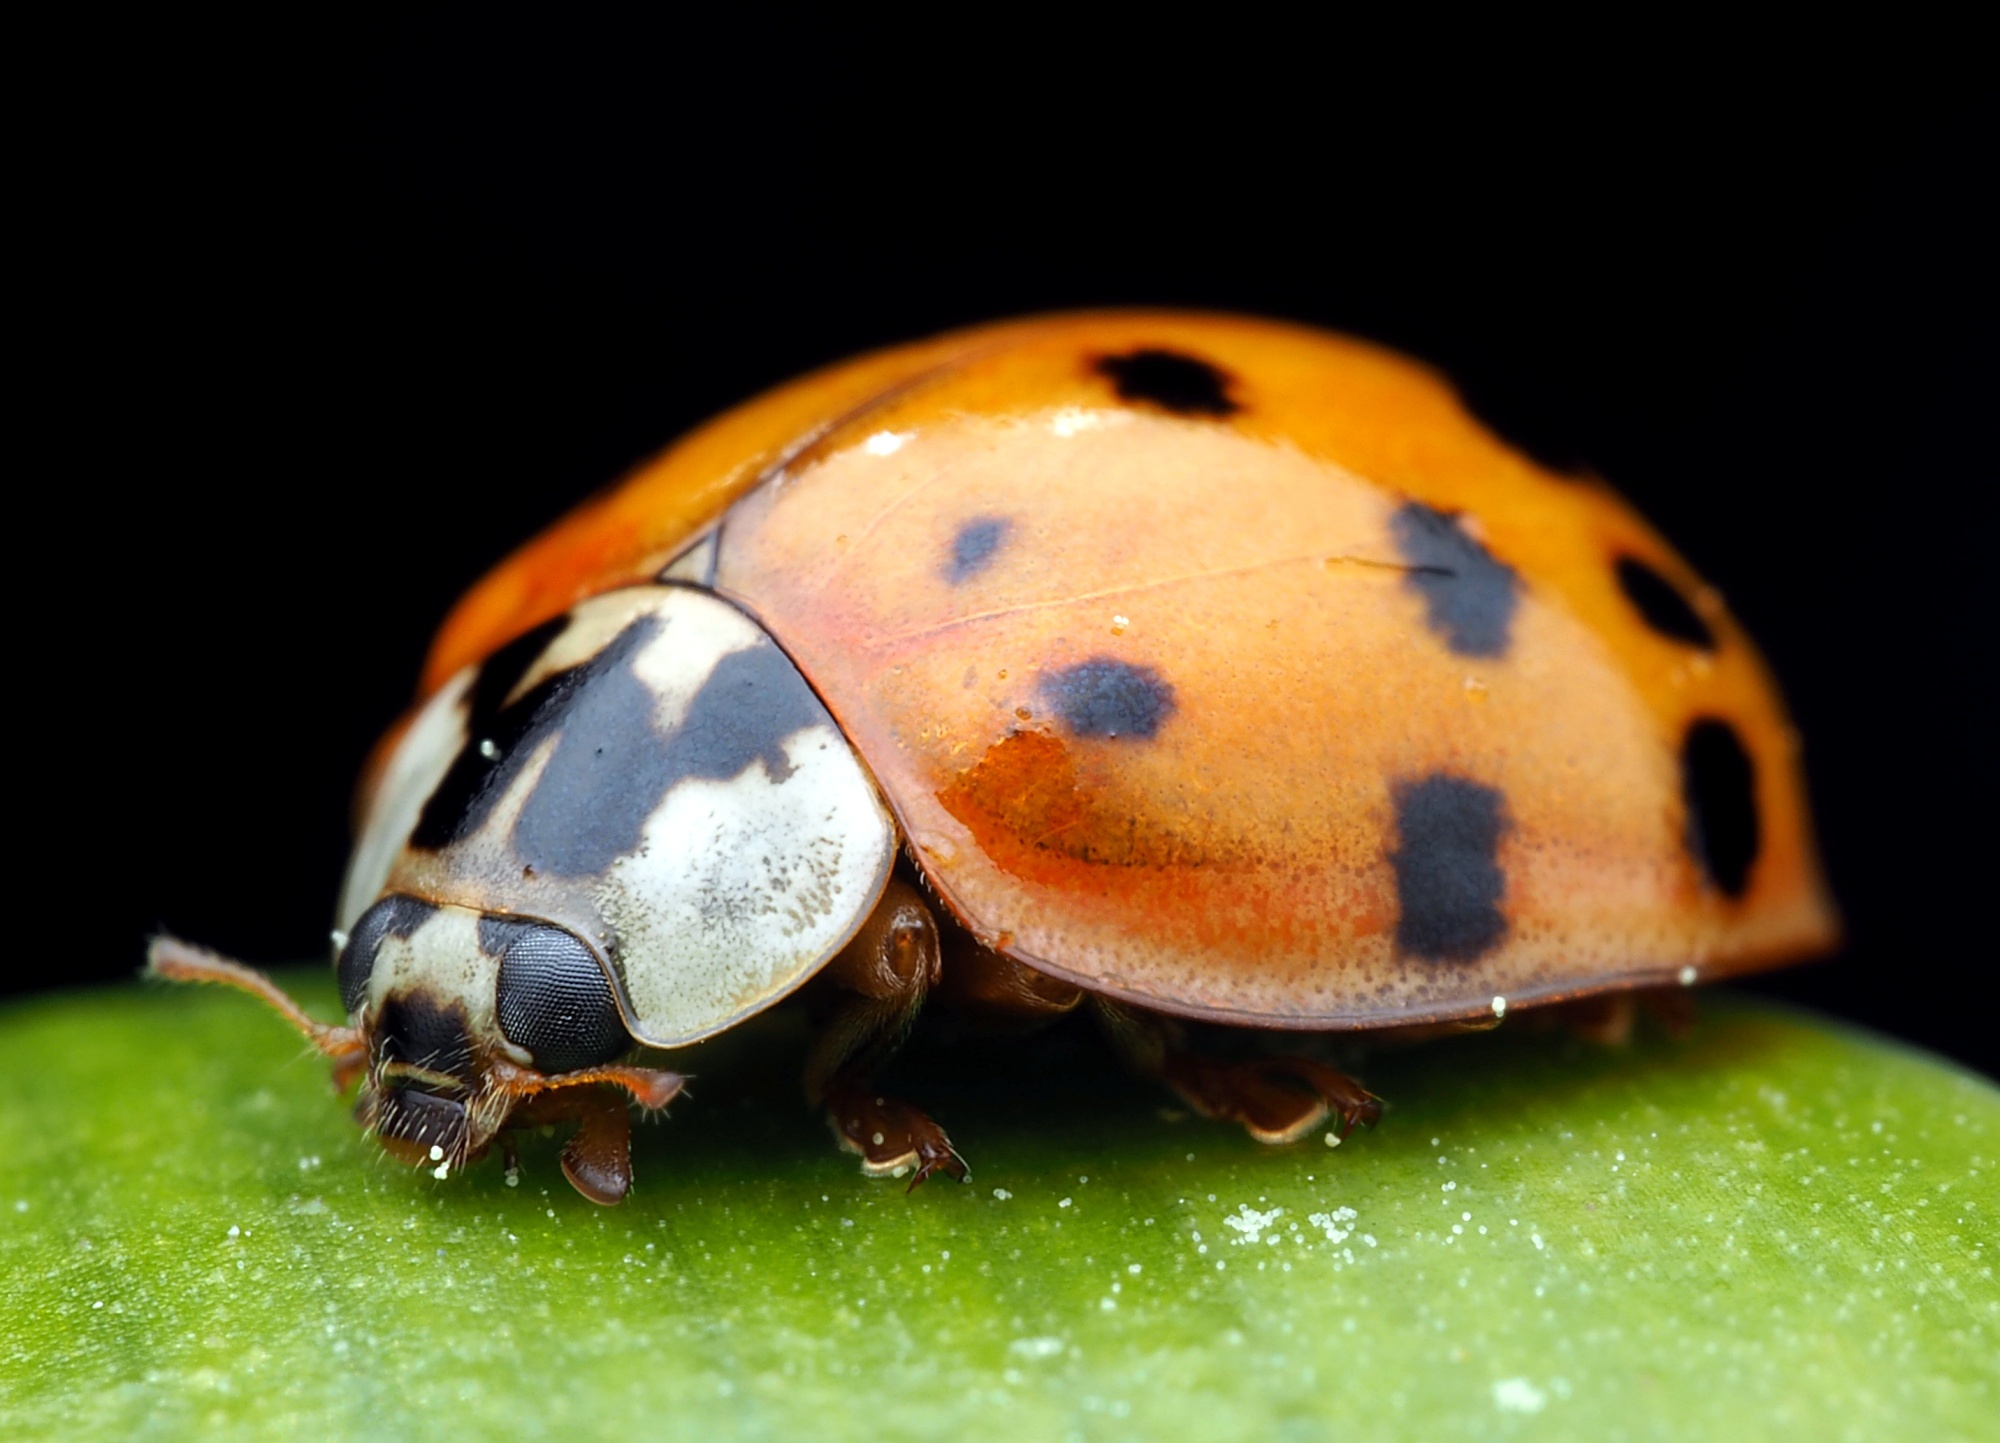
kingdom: Animalia
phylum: Arthropoda
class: Insecta
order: Coleoptera
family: Coccinellidae
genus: Harmonia
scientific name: Harmonia axyridis
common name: Harlequin ladybird
